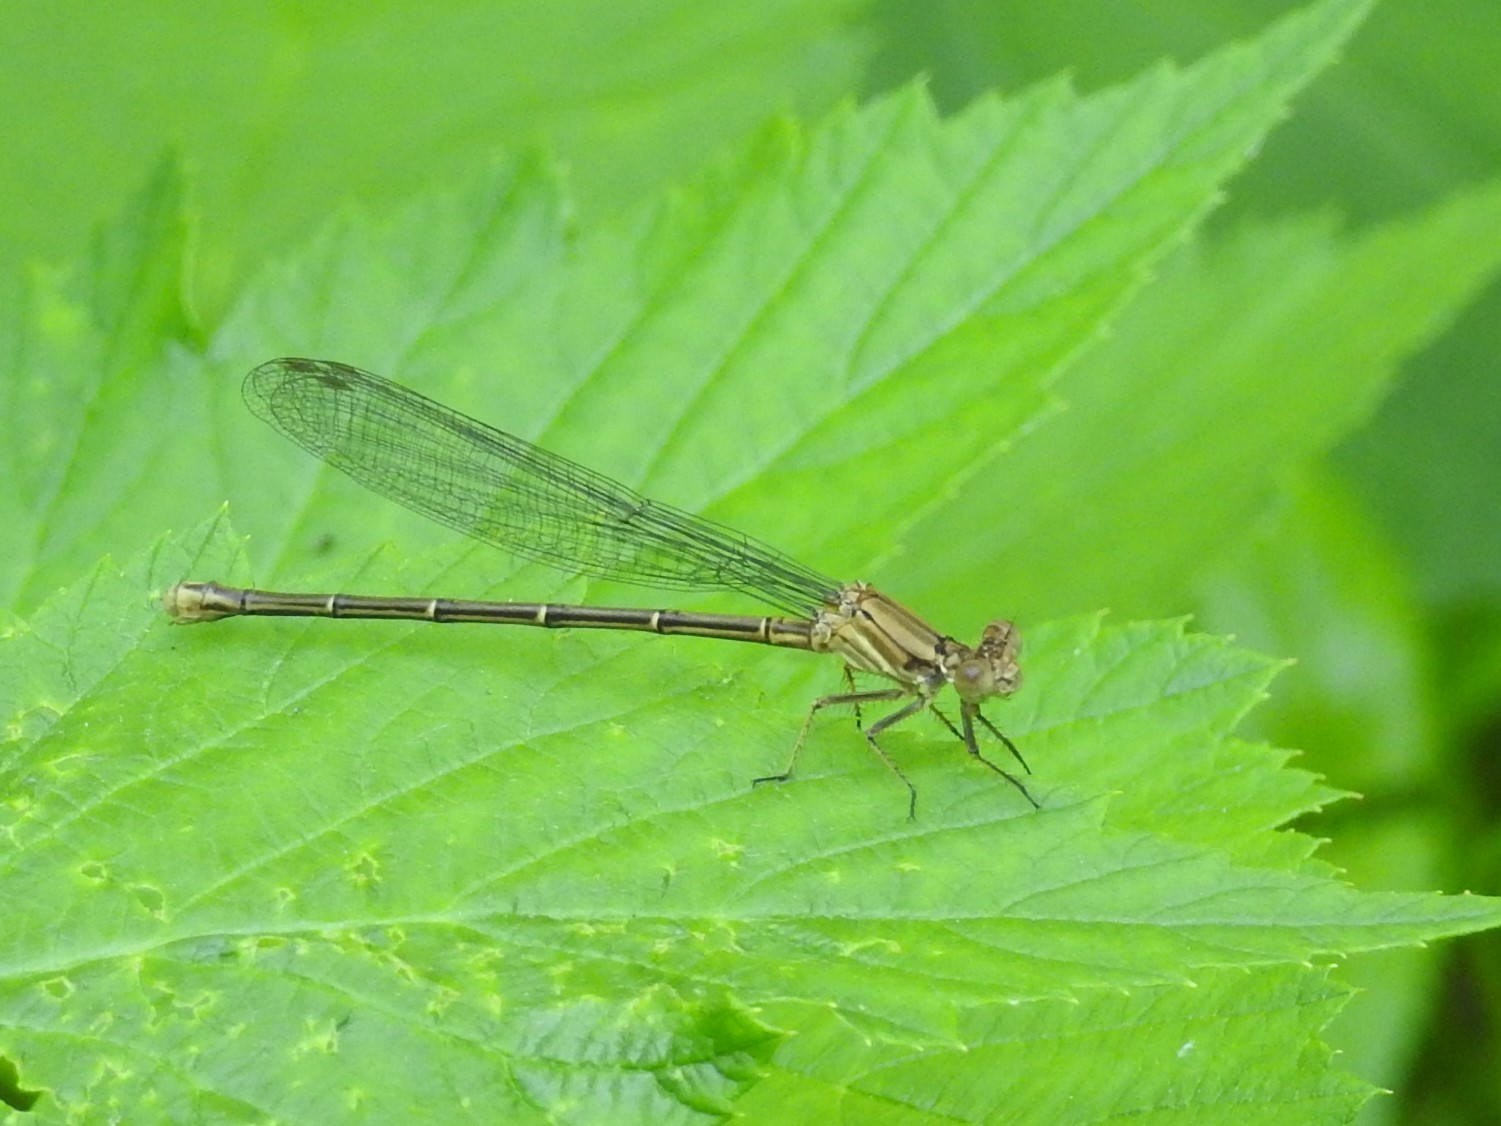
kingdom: Animalia
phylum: Arthropoda
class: Insecta
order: Odonata
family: Coenagrionidae
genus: Argia
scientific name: Argia moesta
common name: Powdered dancer
